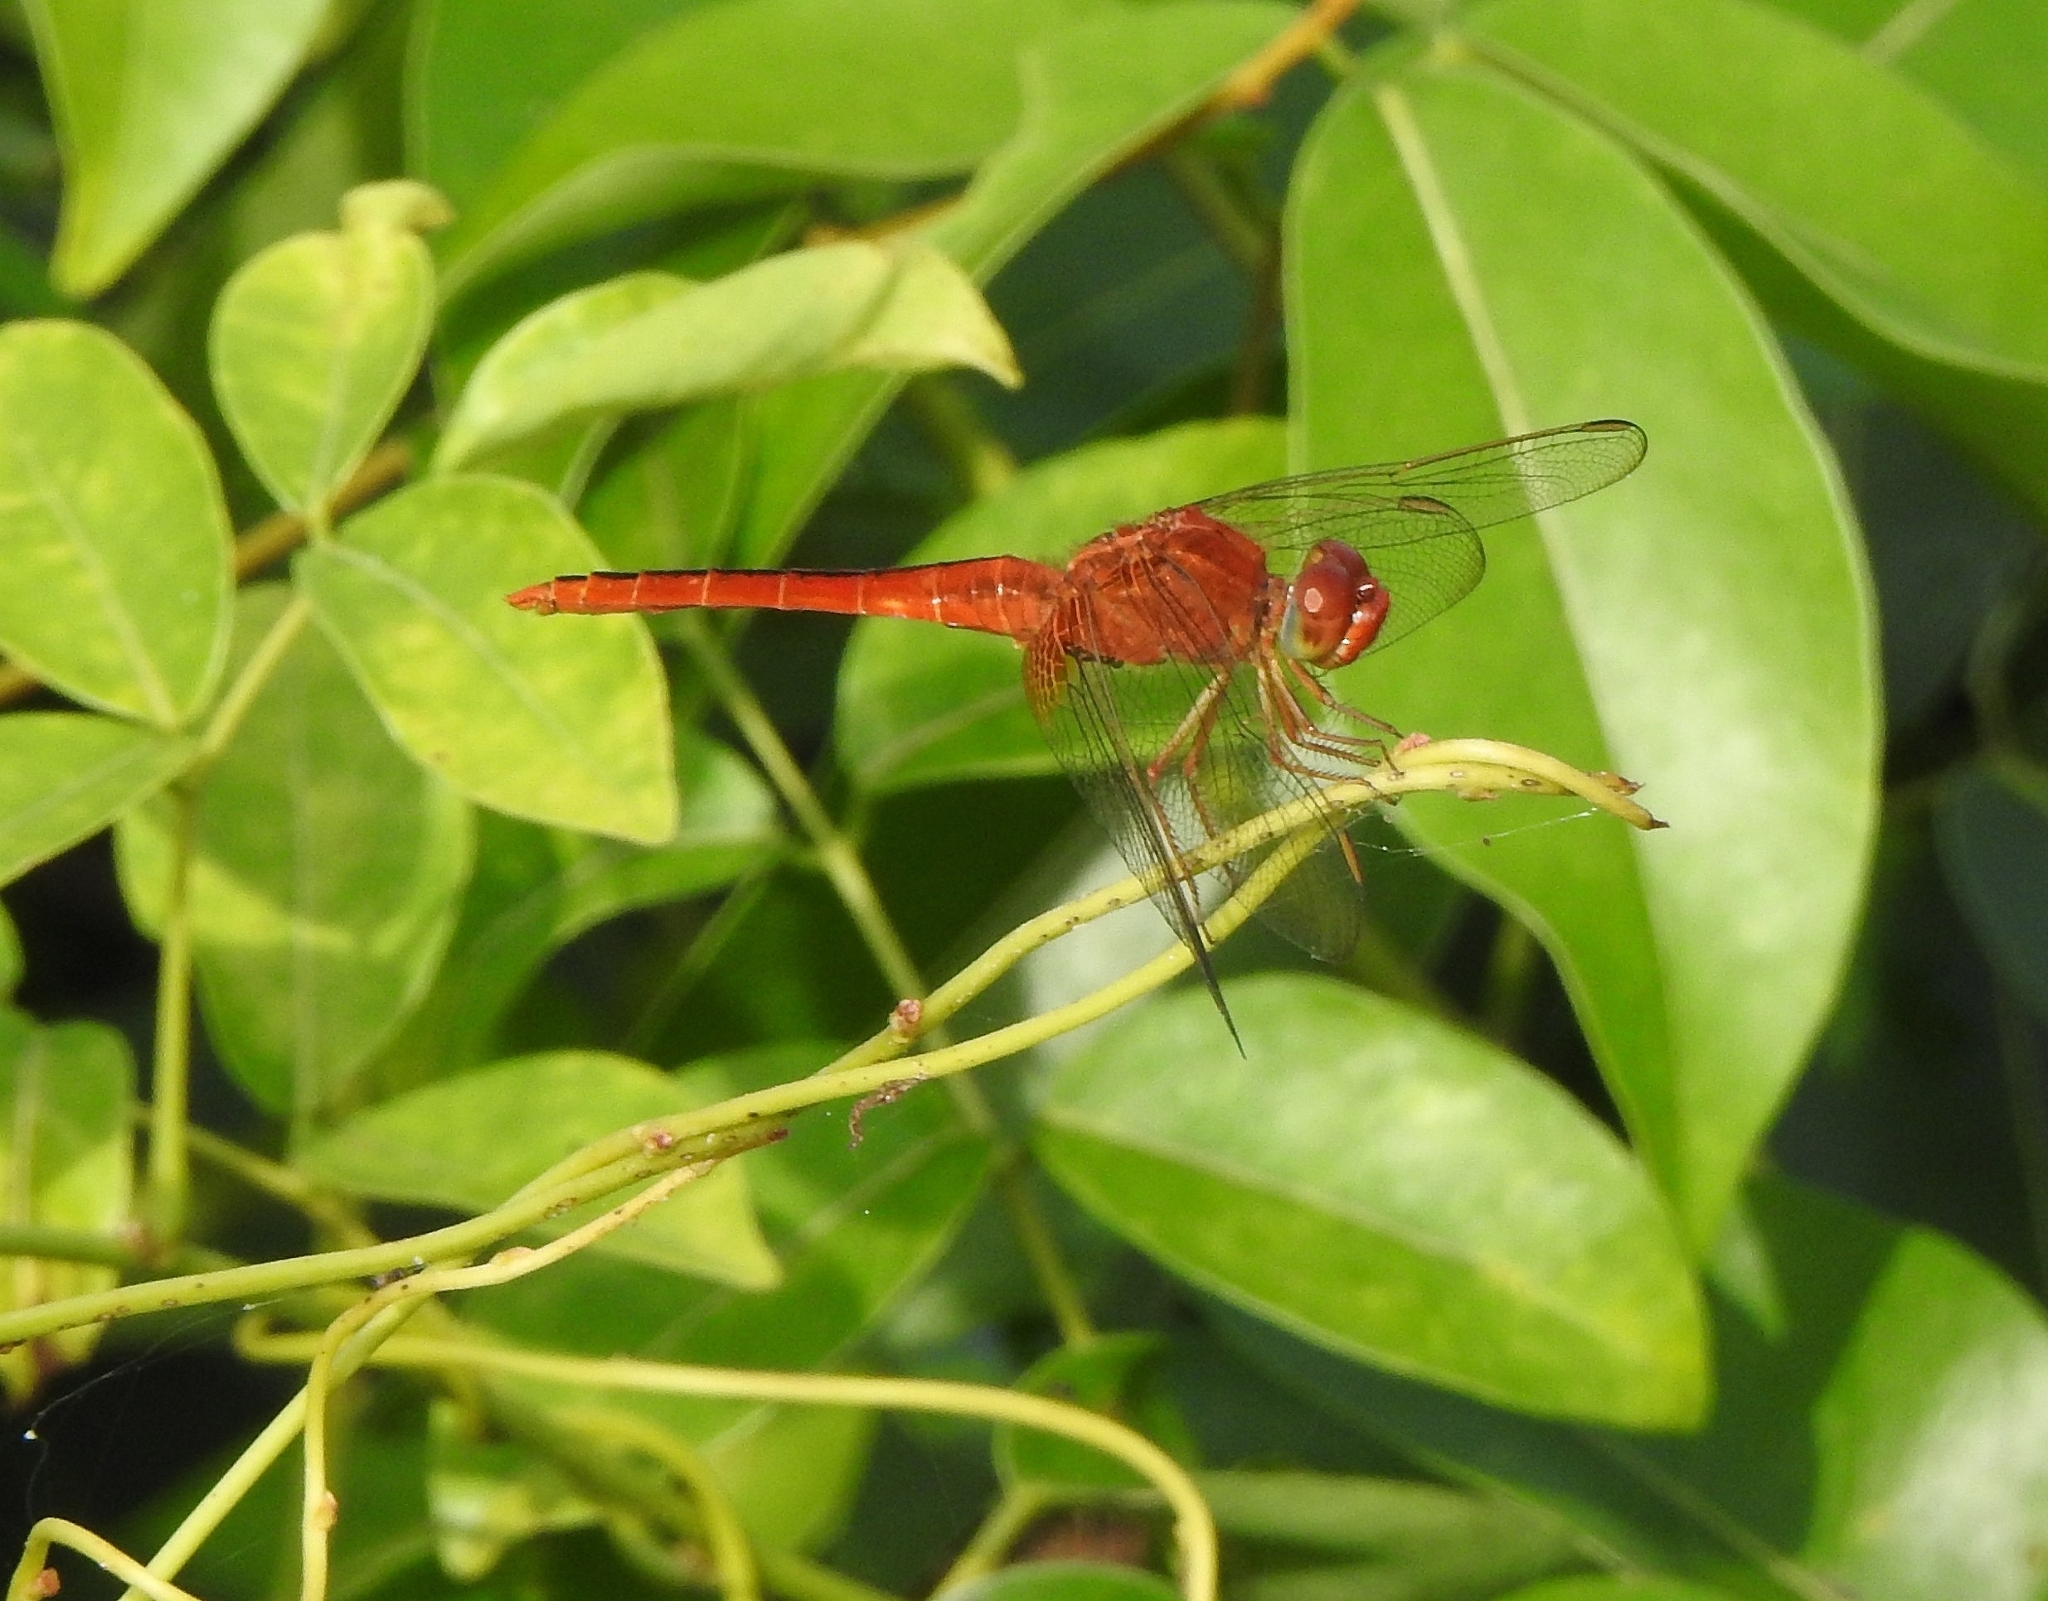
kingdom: Animalia
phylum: Arthropoda
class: Insecta
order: Odonata
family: Libellulidae
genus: Crocothemis
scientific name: Crocothemis servilia
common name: Scarlet skimmer
